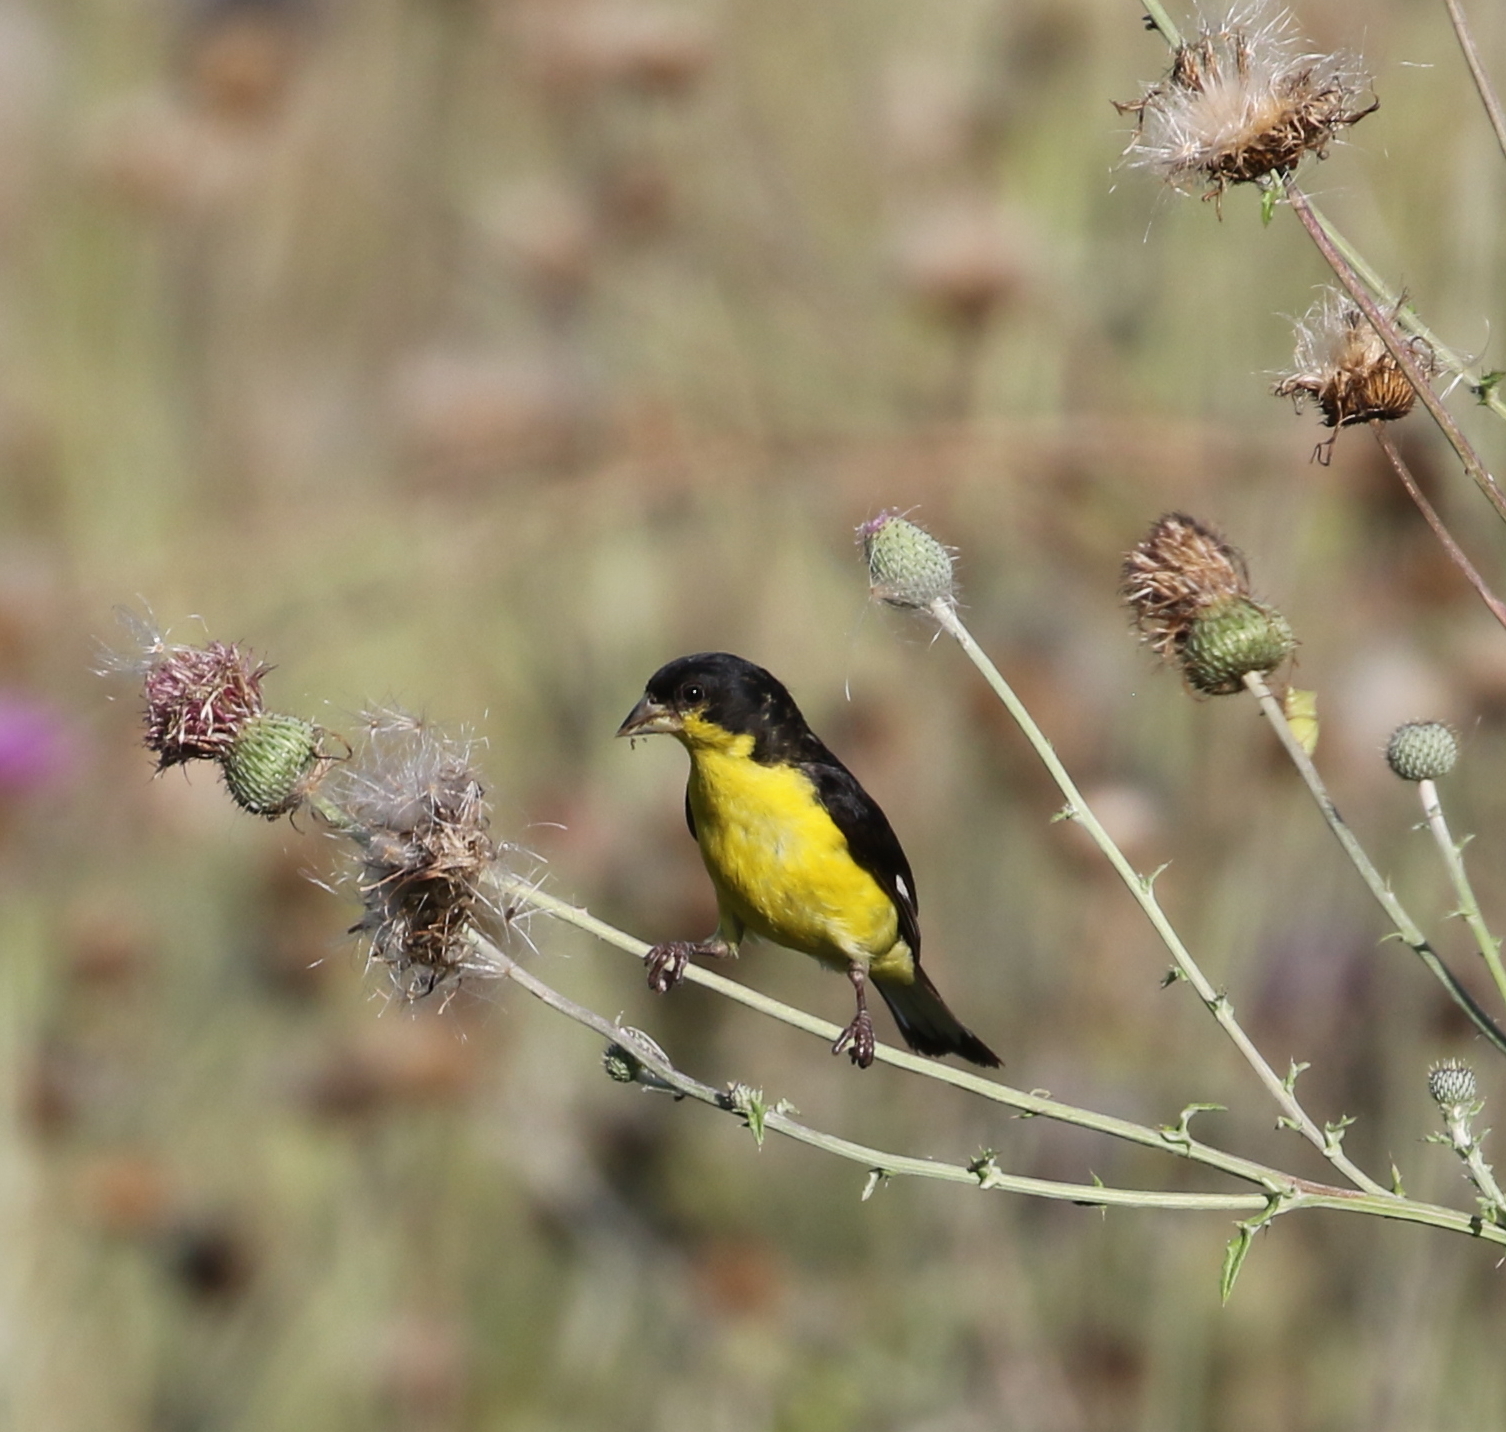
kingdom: Animalia
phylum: Chordata
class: Aves
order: Passeriformes
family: Fringillidae
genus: Spinus
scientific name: Spinus psaltria
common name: Lesser goldfinch
